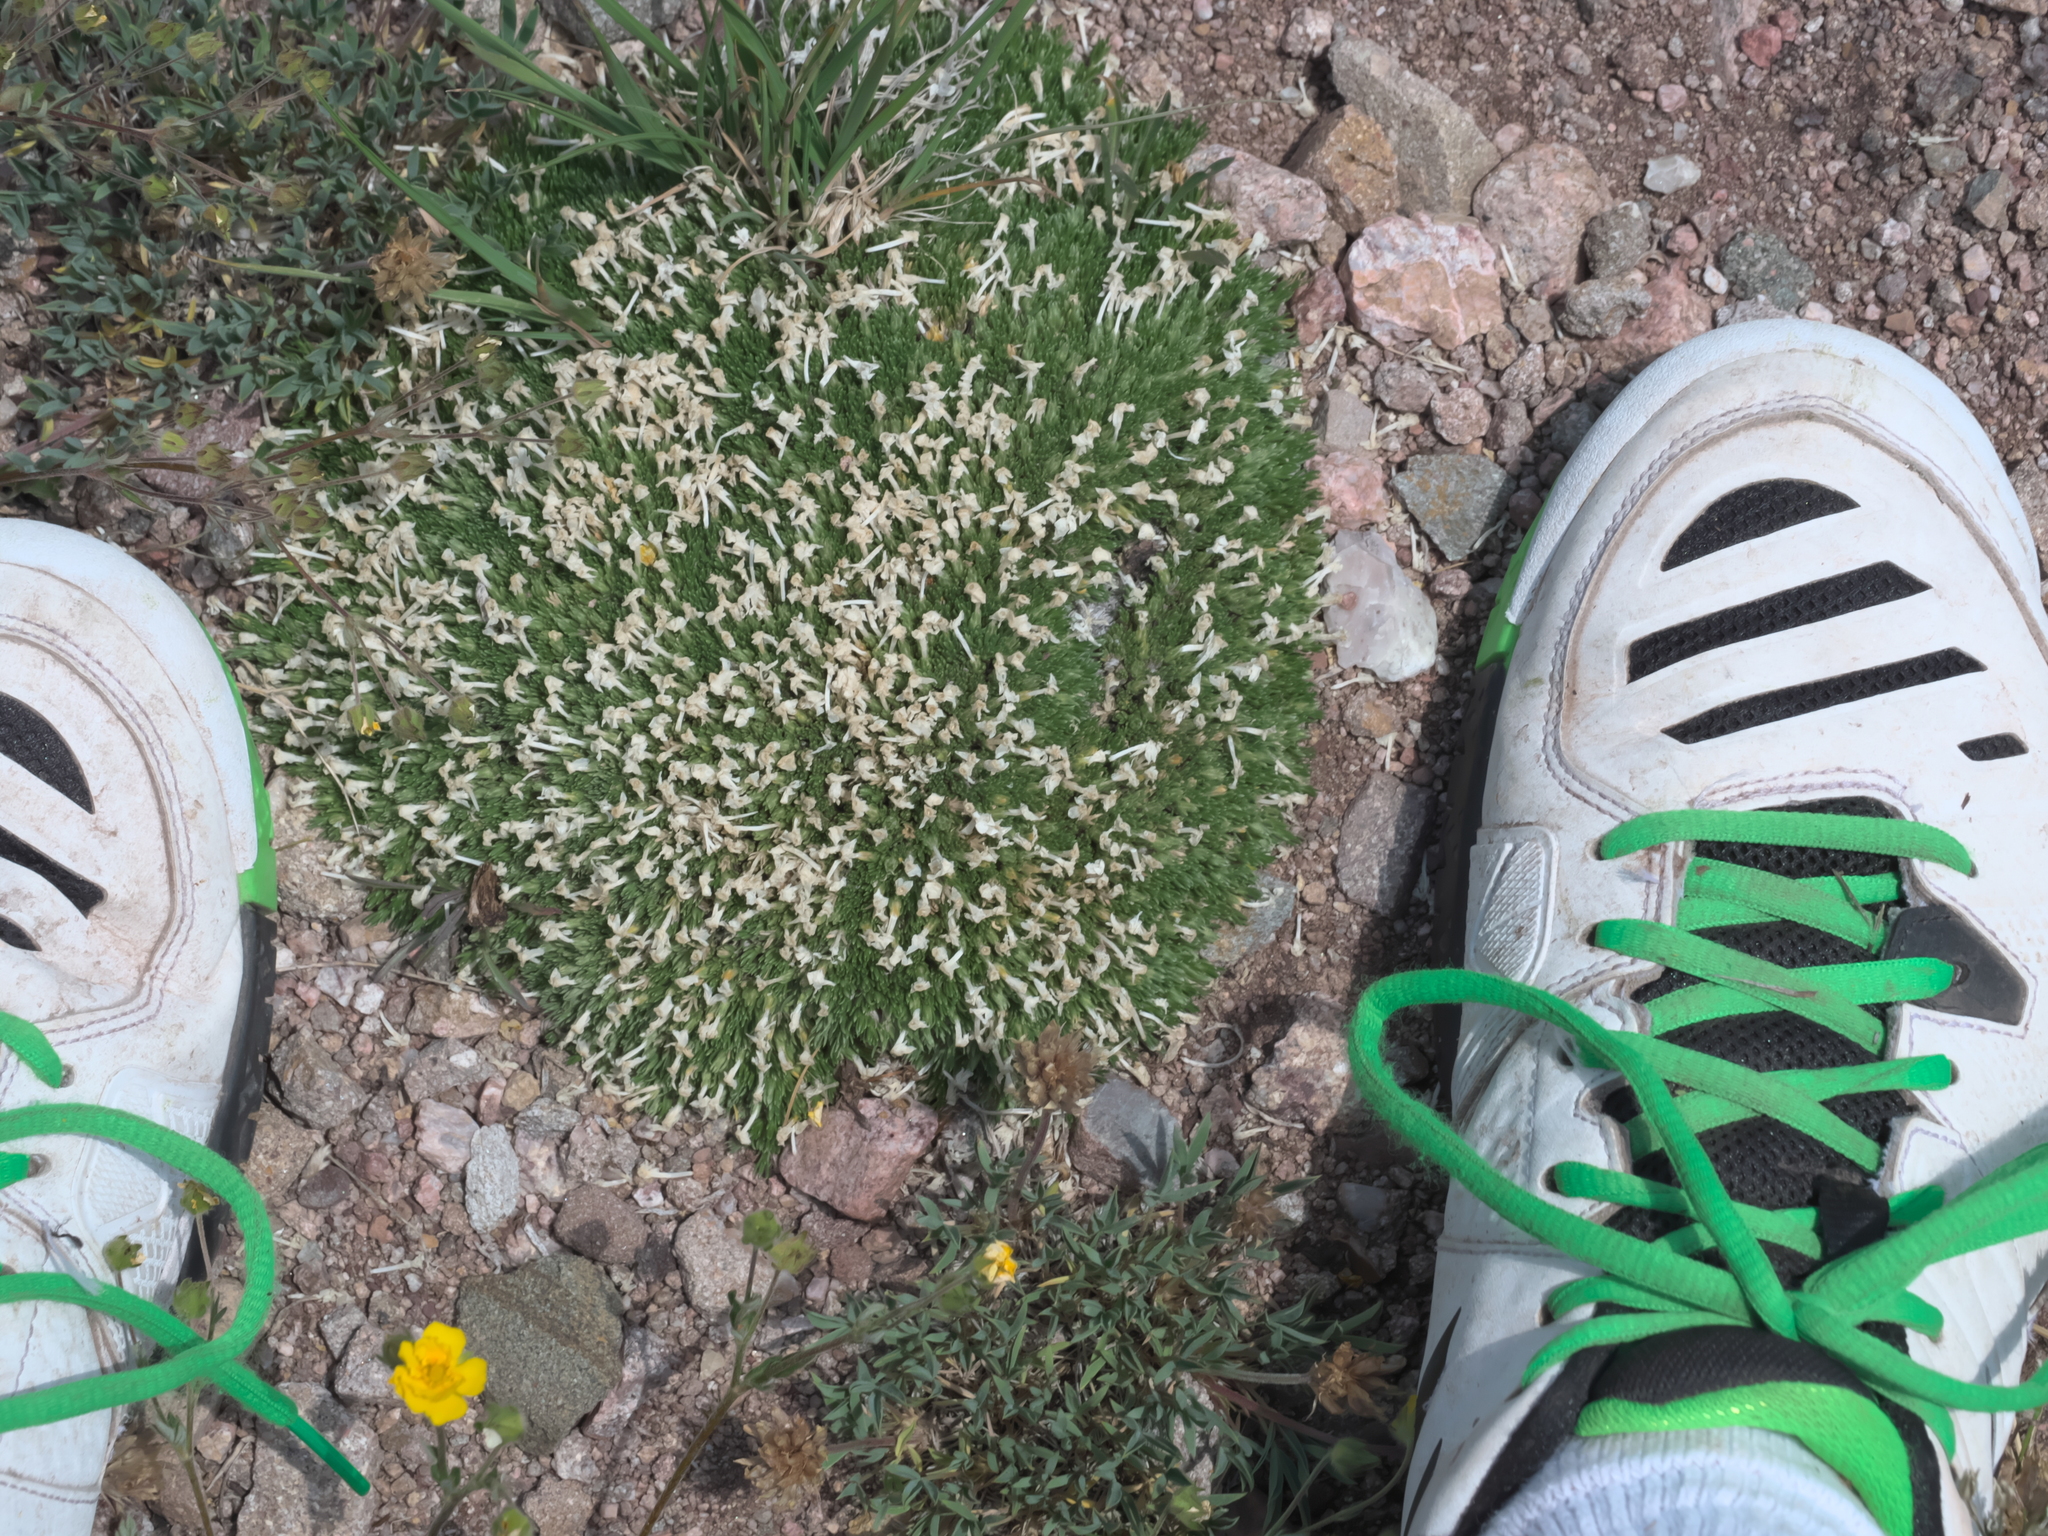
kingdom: Plantae
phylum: Tracheophyta
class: Magnoliopsida
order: Ericales
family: Polemoniaceae
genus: Phlox
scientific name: Phlox condensata
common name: Compact phlox
